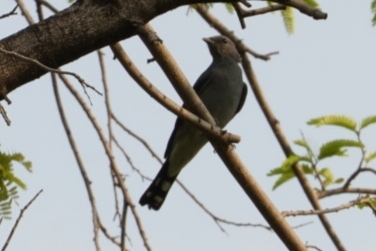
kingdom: Animalia
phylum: Chordata
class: Aves
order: Passeriformes
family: Campephagidae
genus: Coracina
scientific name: Coracina melaschistos
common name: Black-winged cuckooshrike
